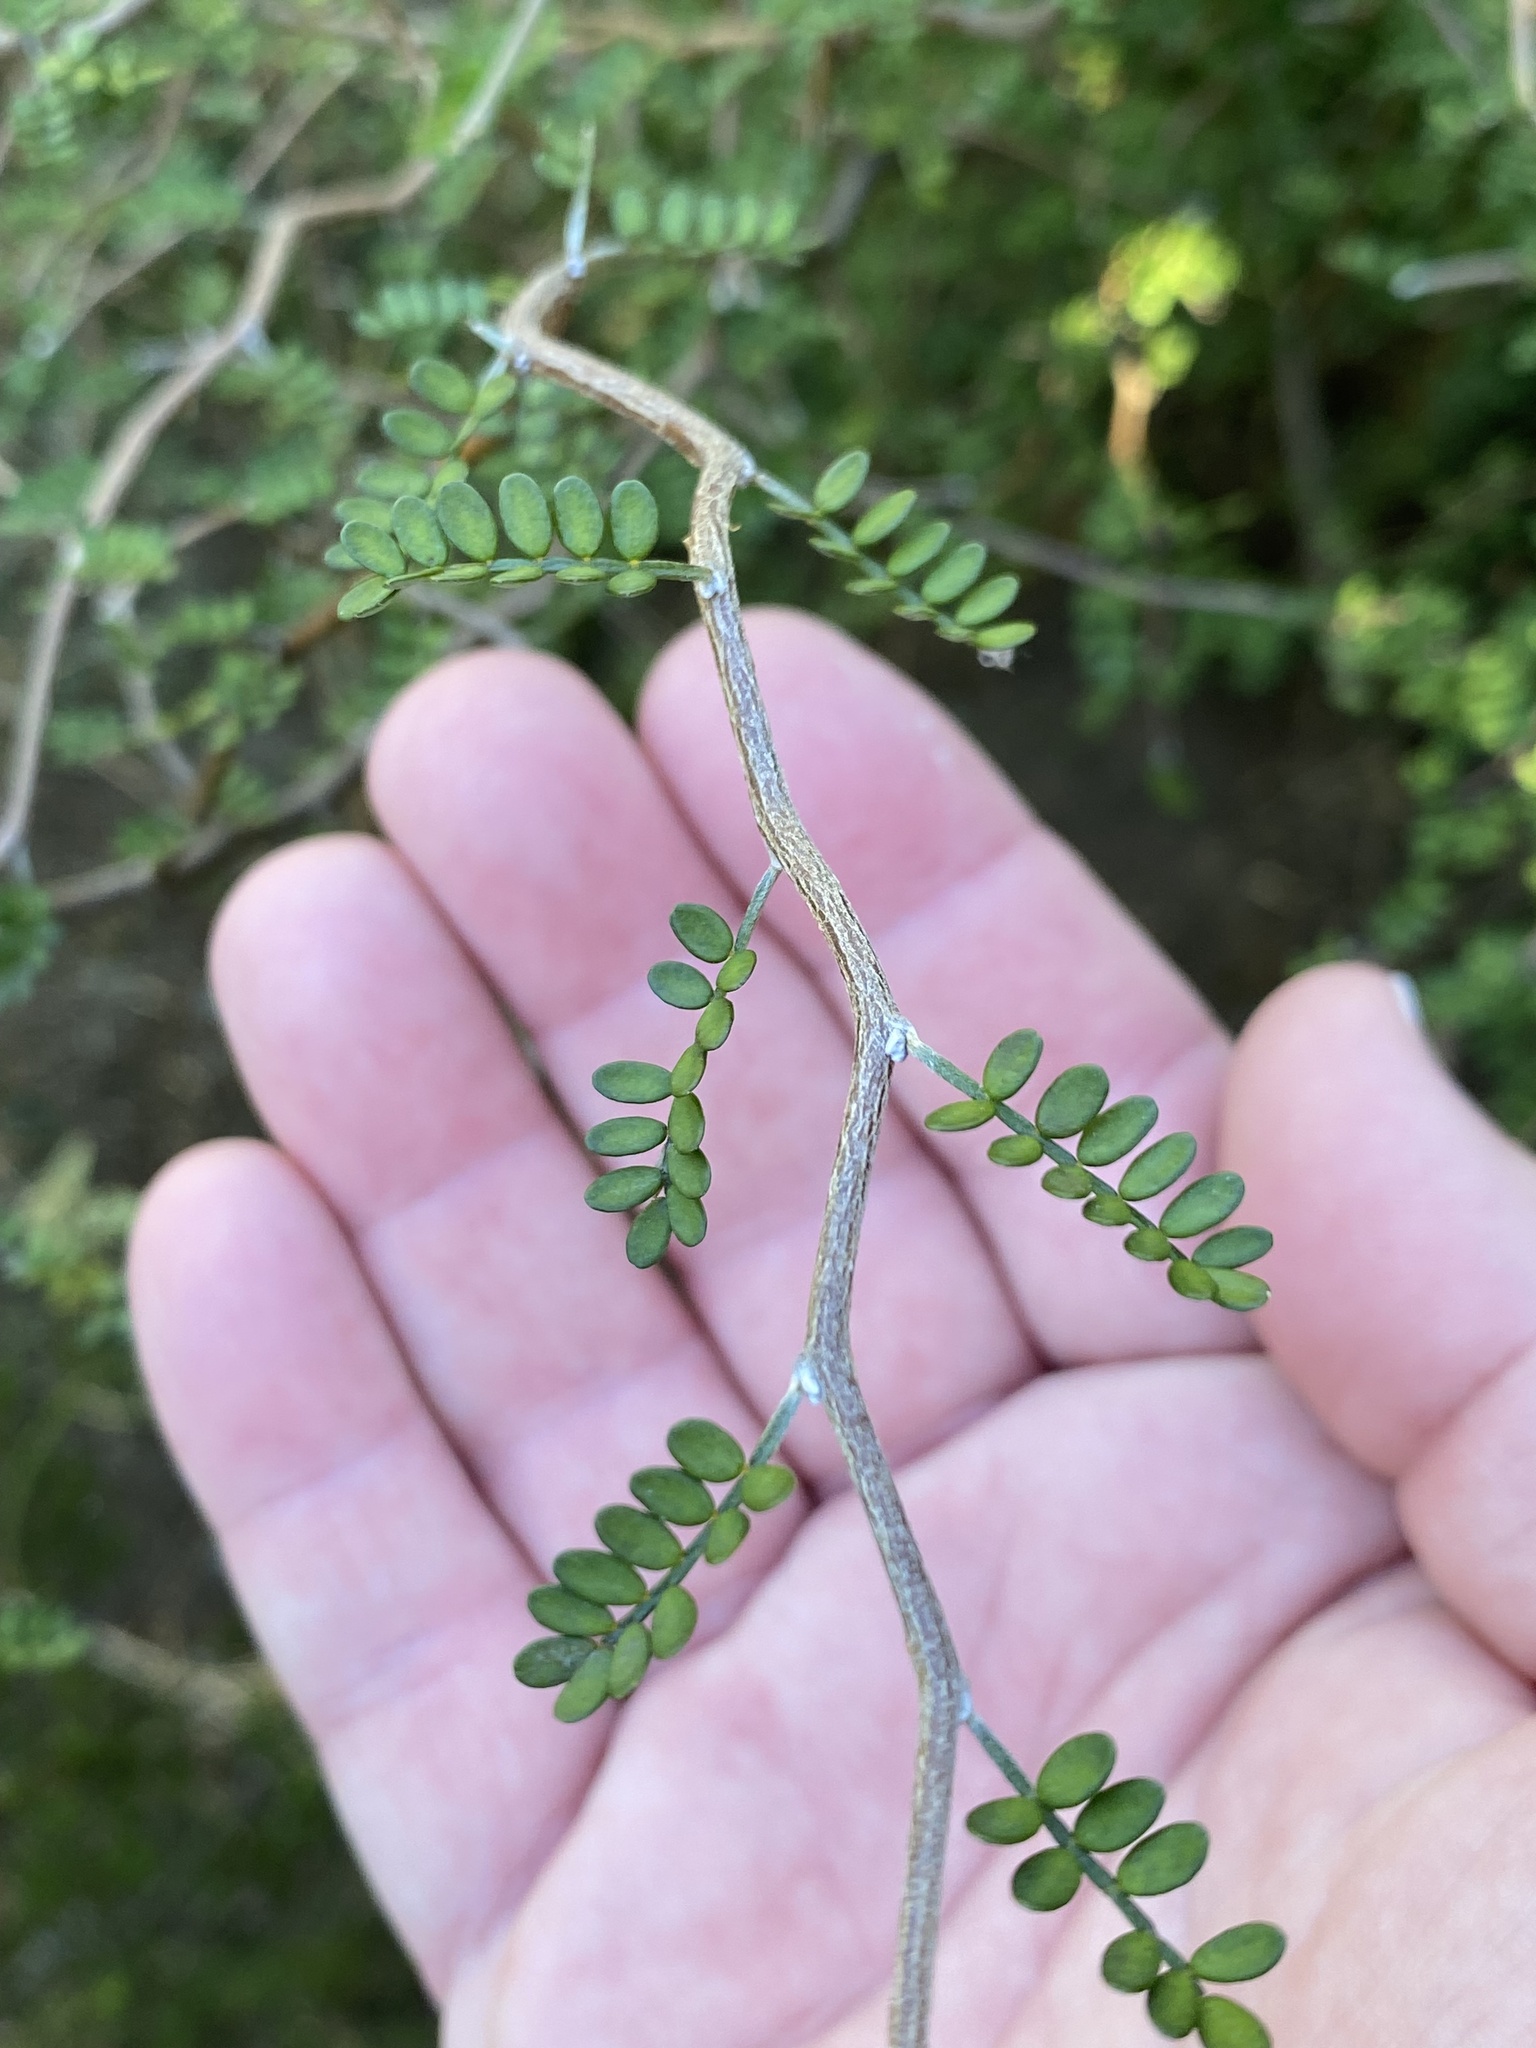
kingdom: Plantae
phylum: Tracheophyta
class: Magnoliopsida
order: Fabales
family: Fabaceae
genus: Sophora
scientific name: Sophora microphylla
